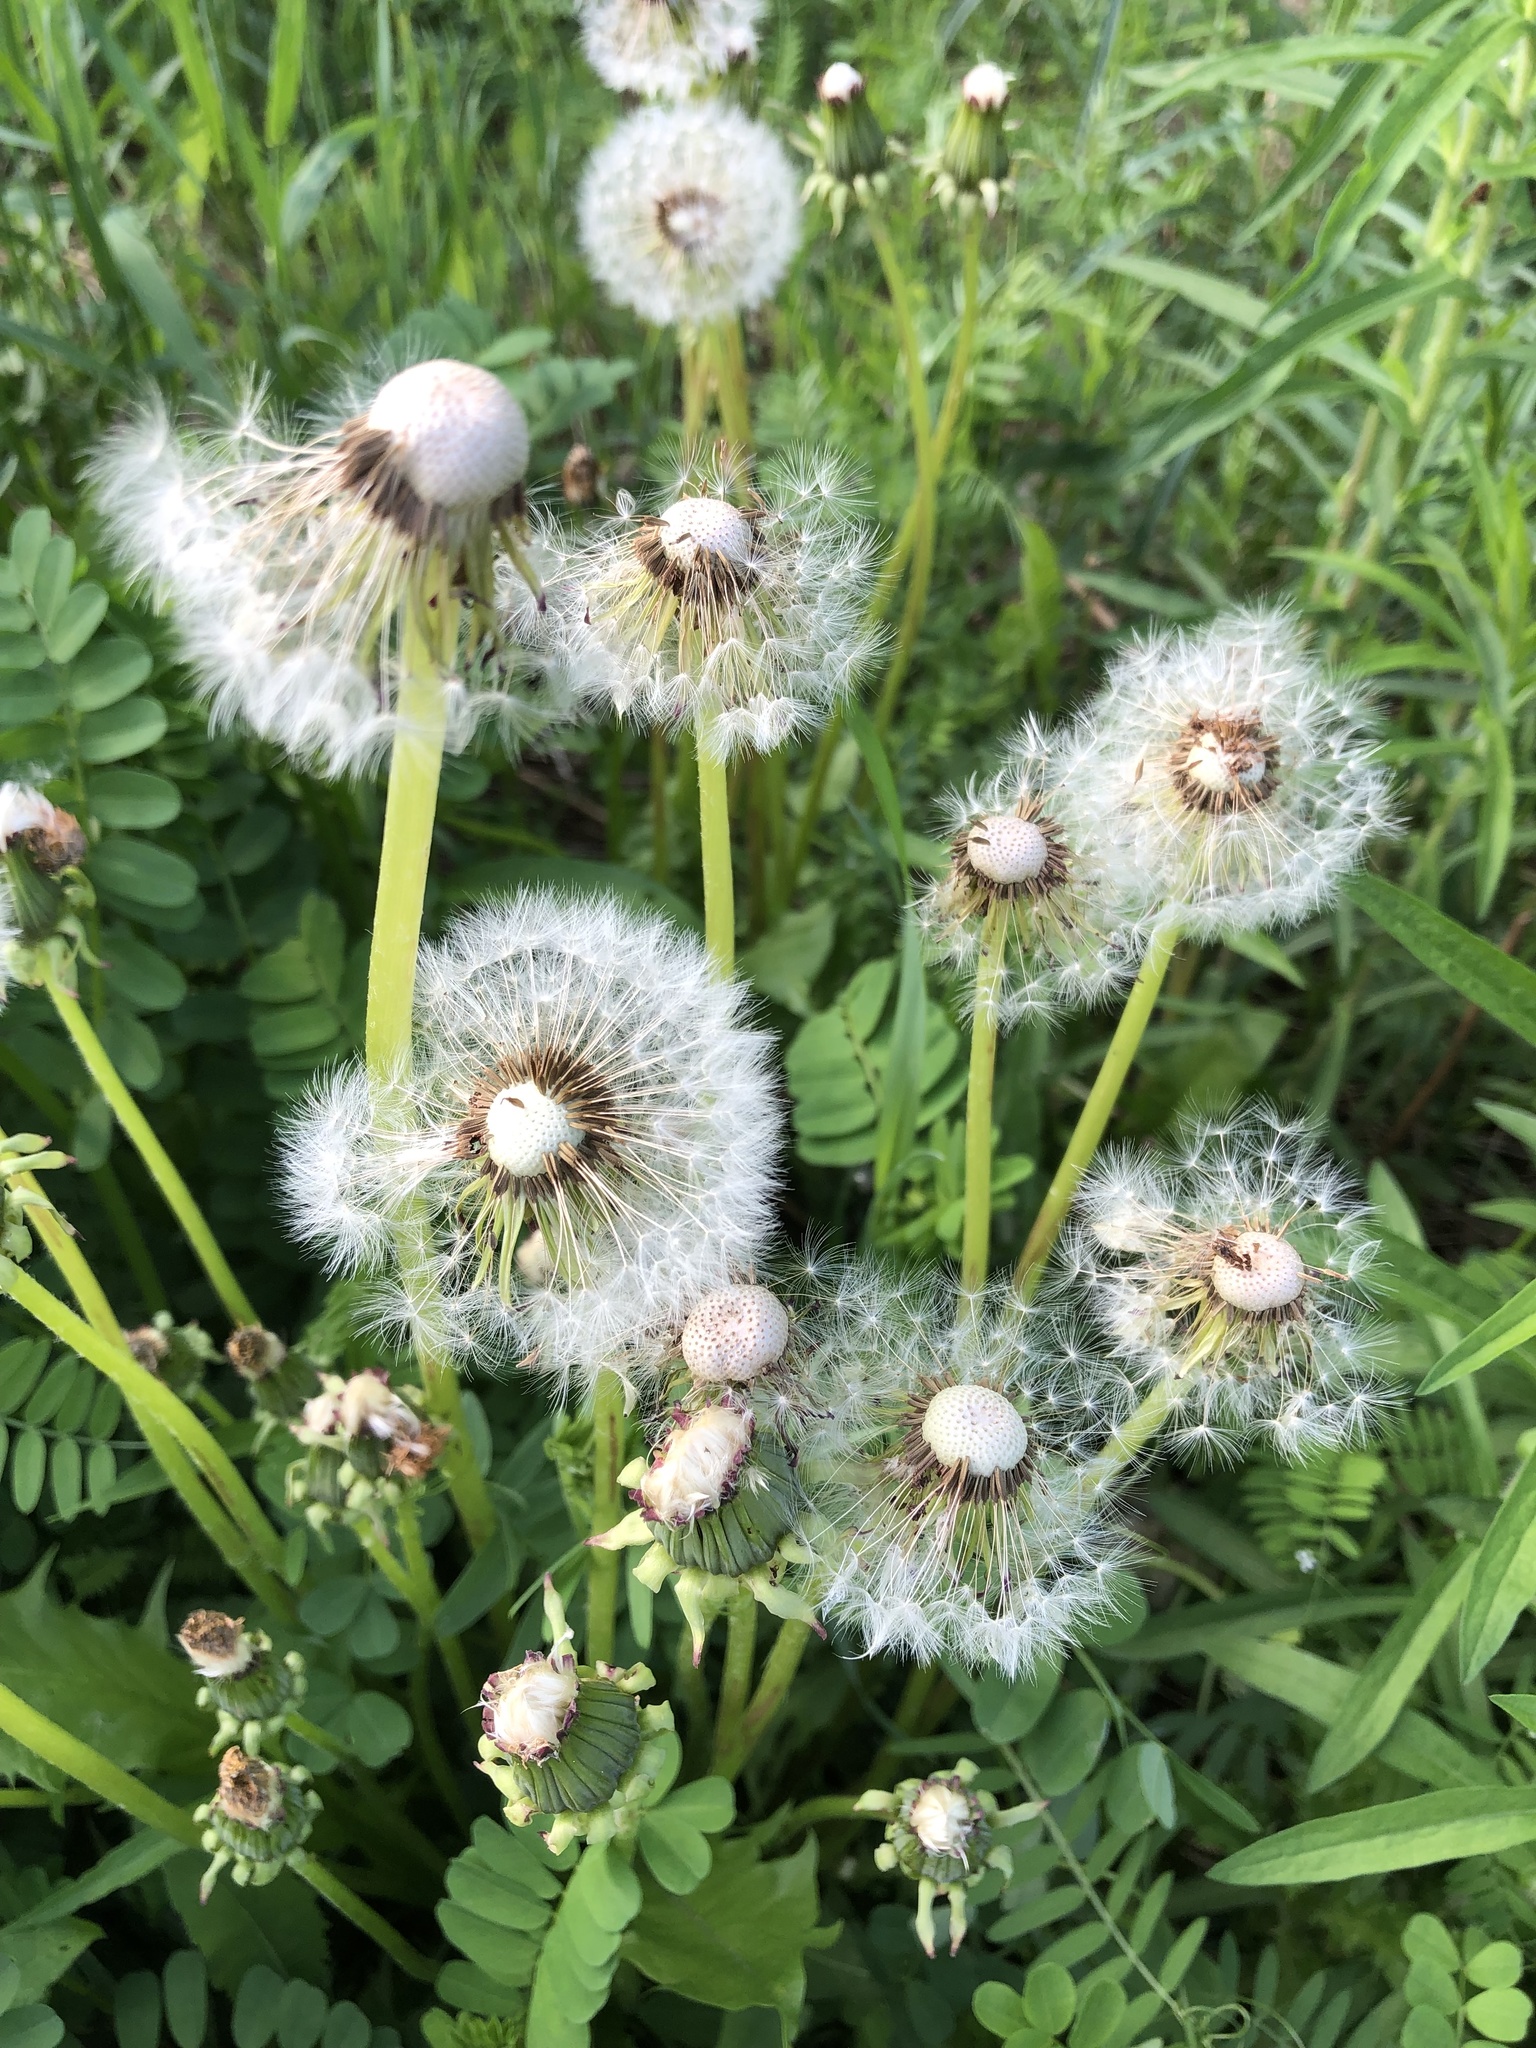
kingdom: Plantae
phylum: Tracheophyta
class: Magnoliopsida
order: Asterales
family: Asteraceae
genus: Taraxacum
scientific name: Taraxacum officinale
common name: Common dandelion
